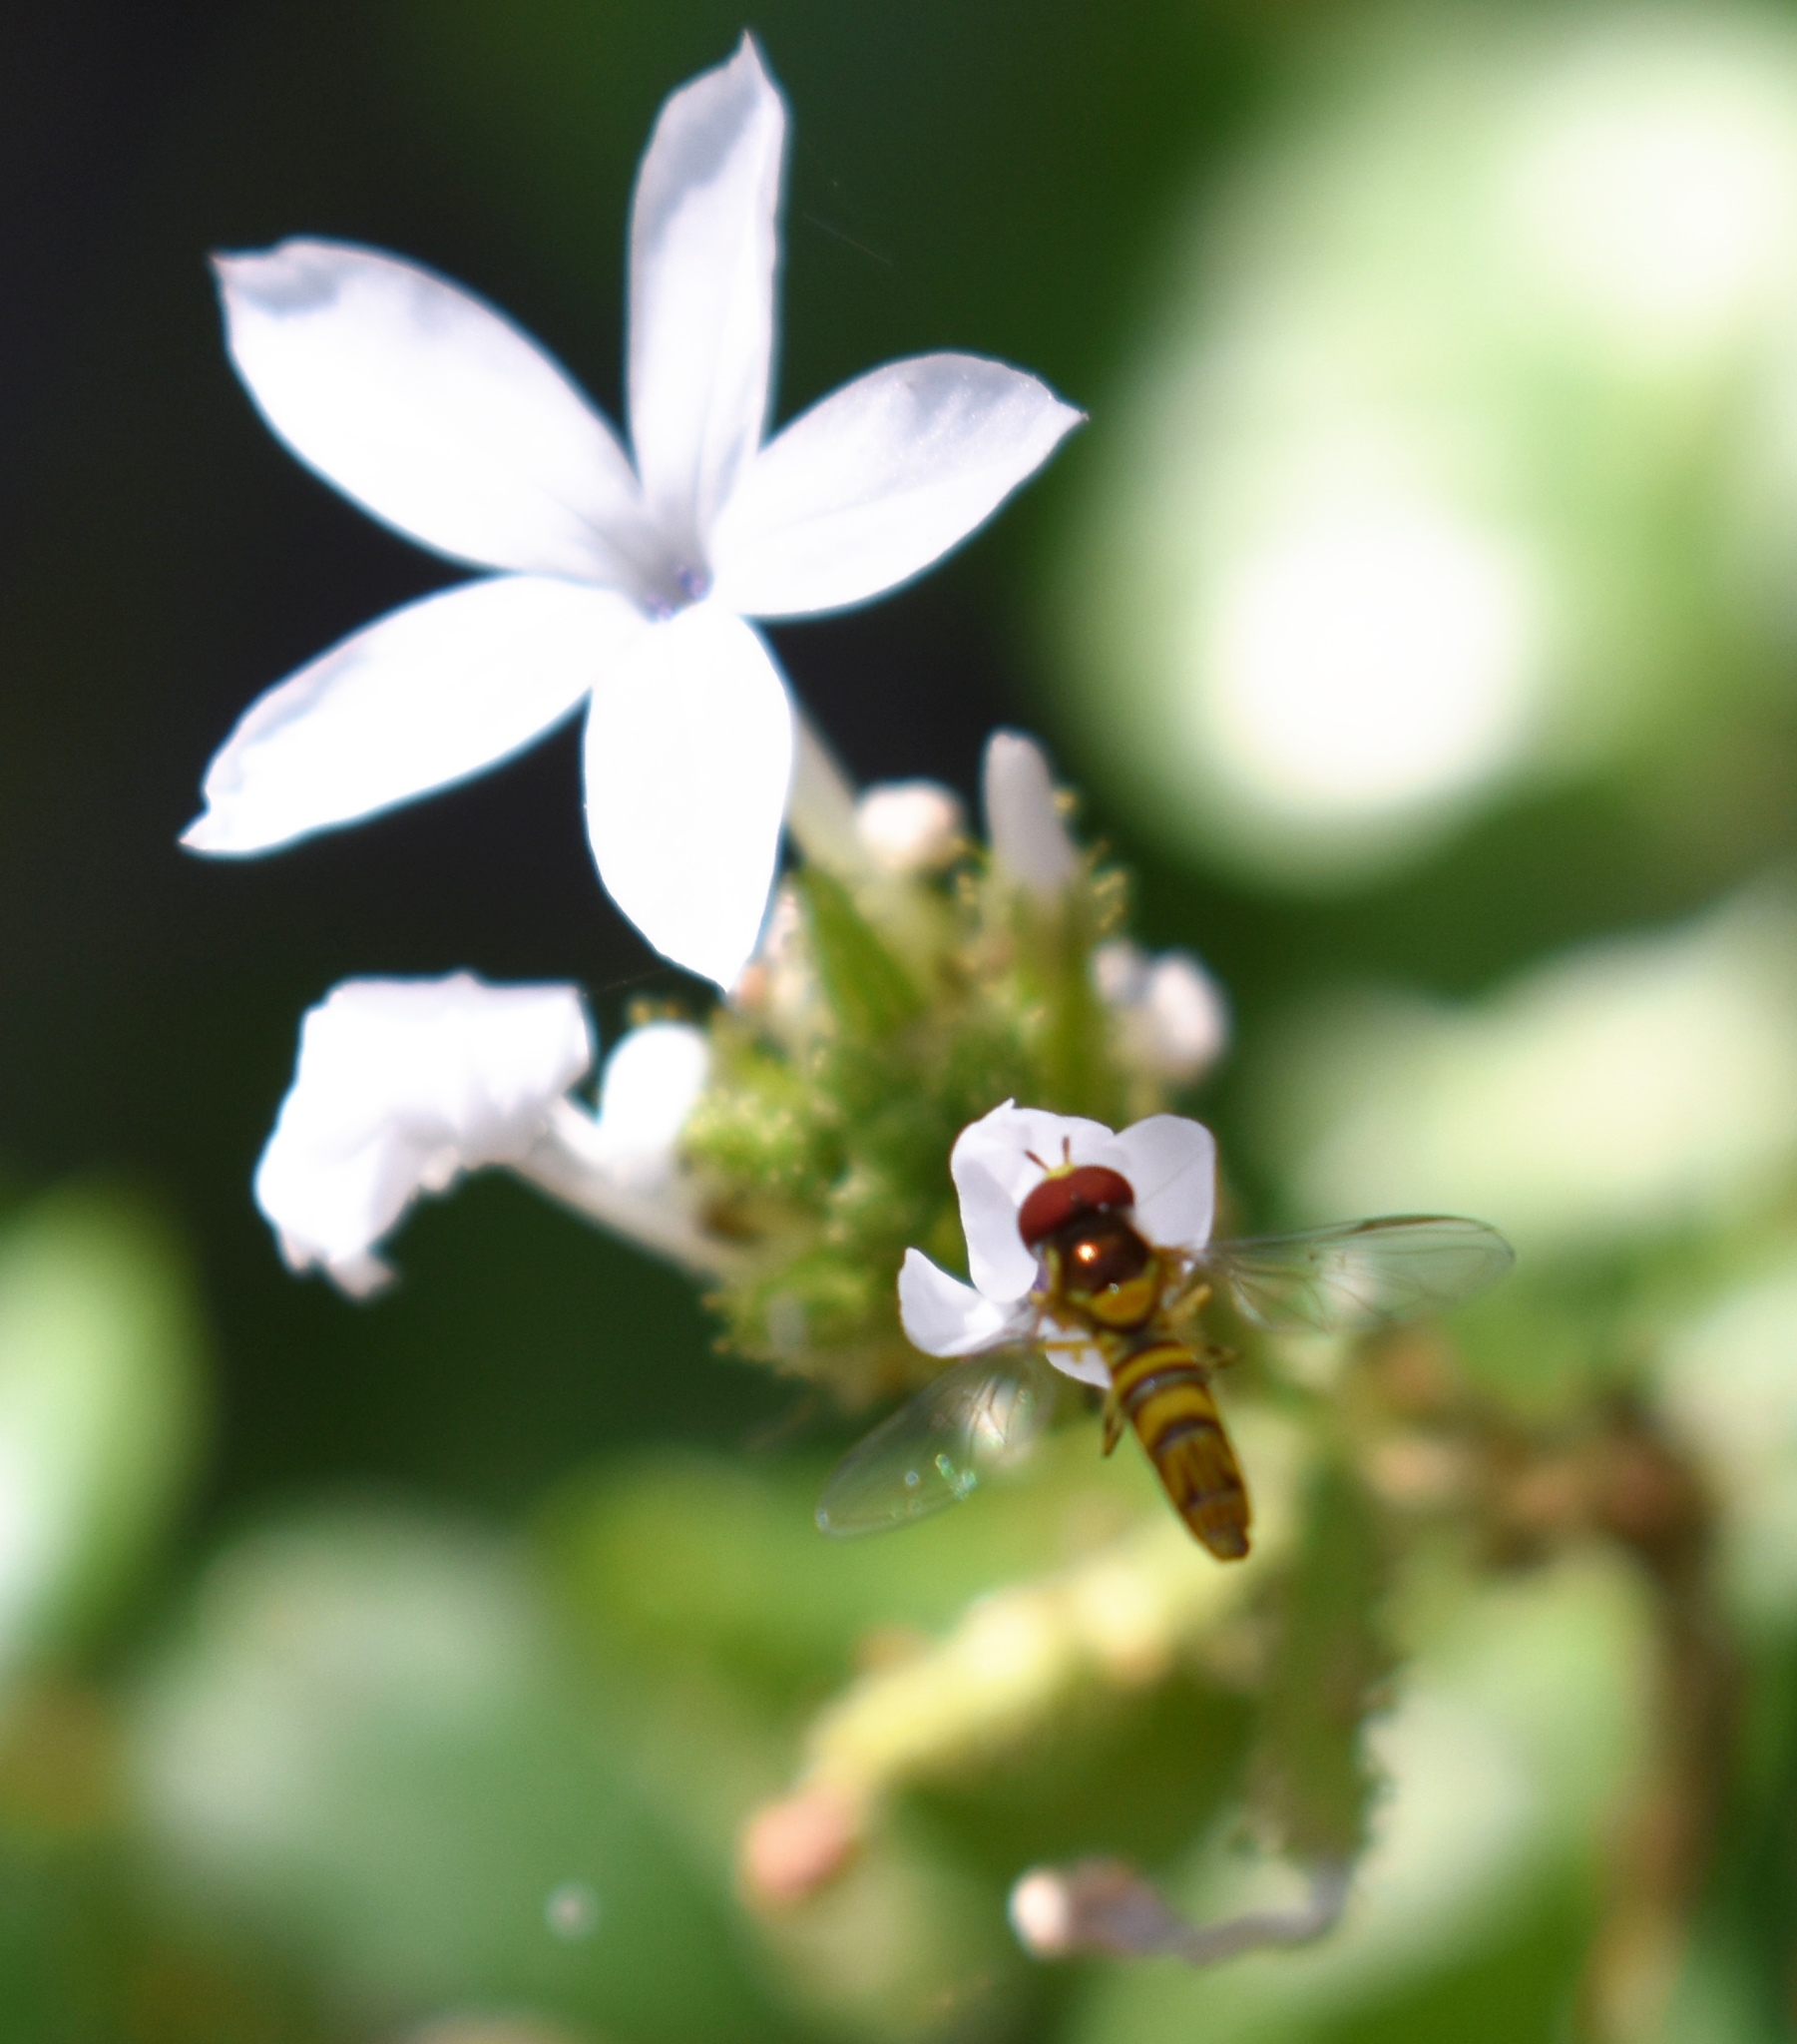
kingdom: Animalia
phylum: Arthropoda
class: Insecta
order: Diptera
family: Syrphidae
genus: Allograpta
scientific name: Allograpta obliqua
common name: Common oblique syrphid
